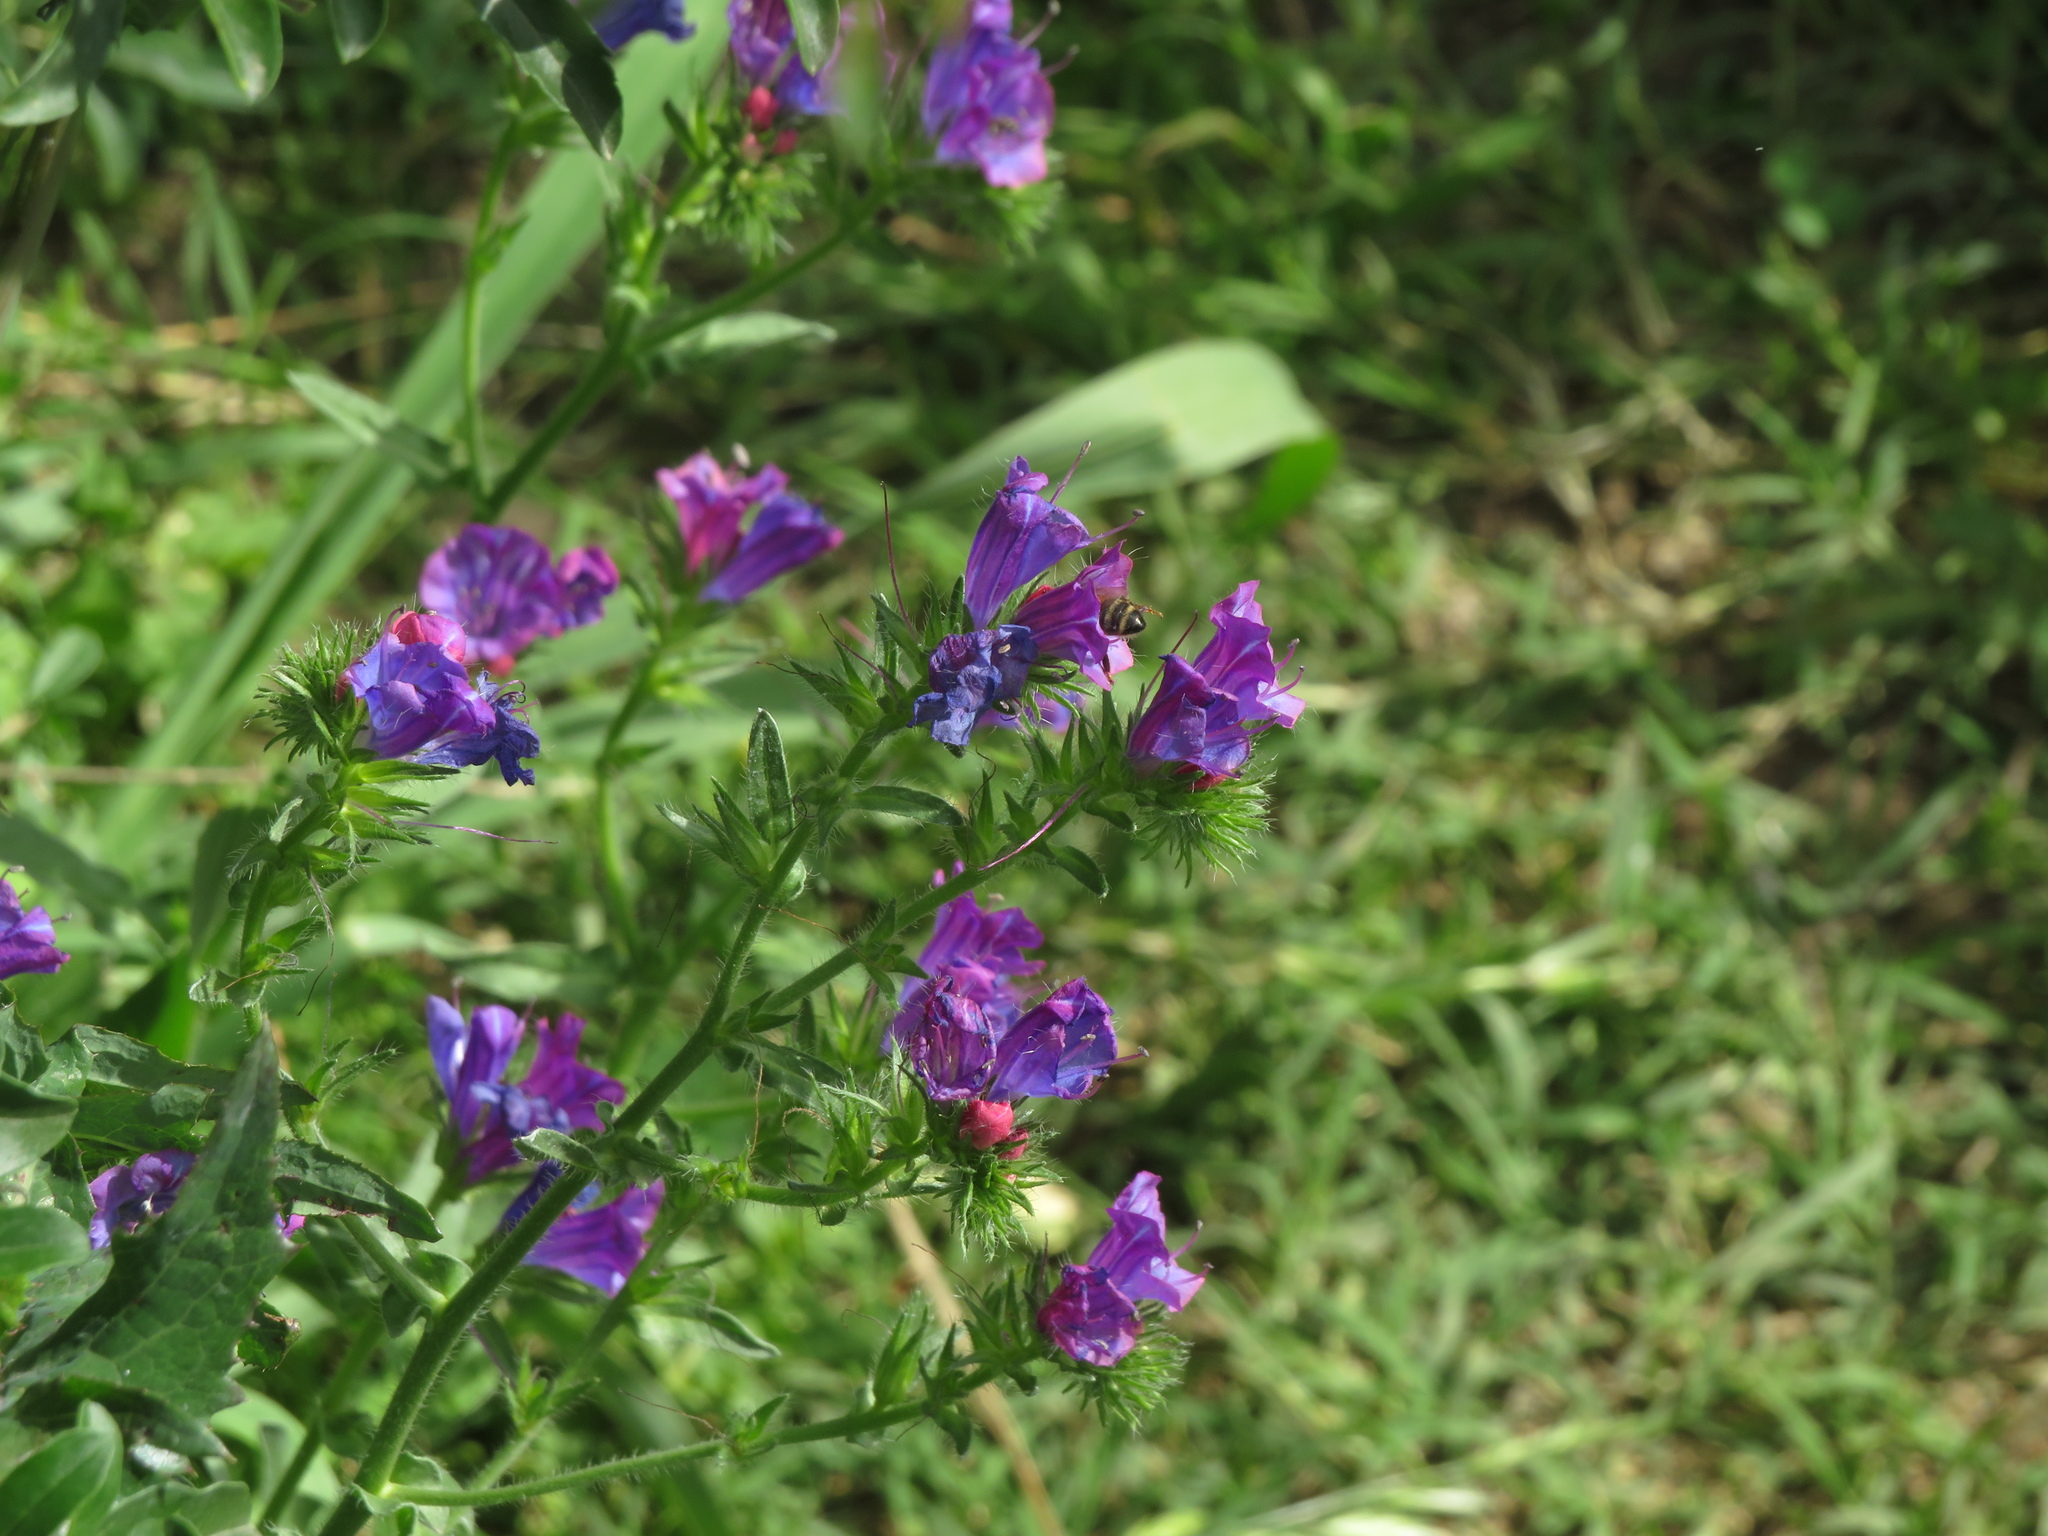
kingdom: Plantae
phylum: Tracheophyta
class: Magnoliopsida
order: Boraginales
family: Boraginaceae
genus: Echium
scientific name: Echium plantagineum
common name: Purple viper's-bugloss
